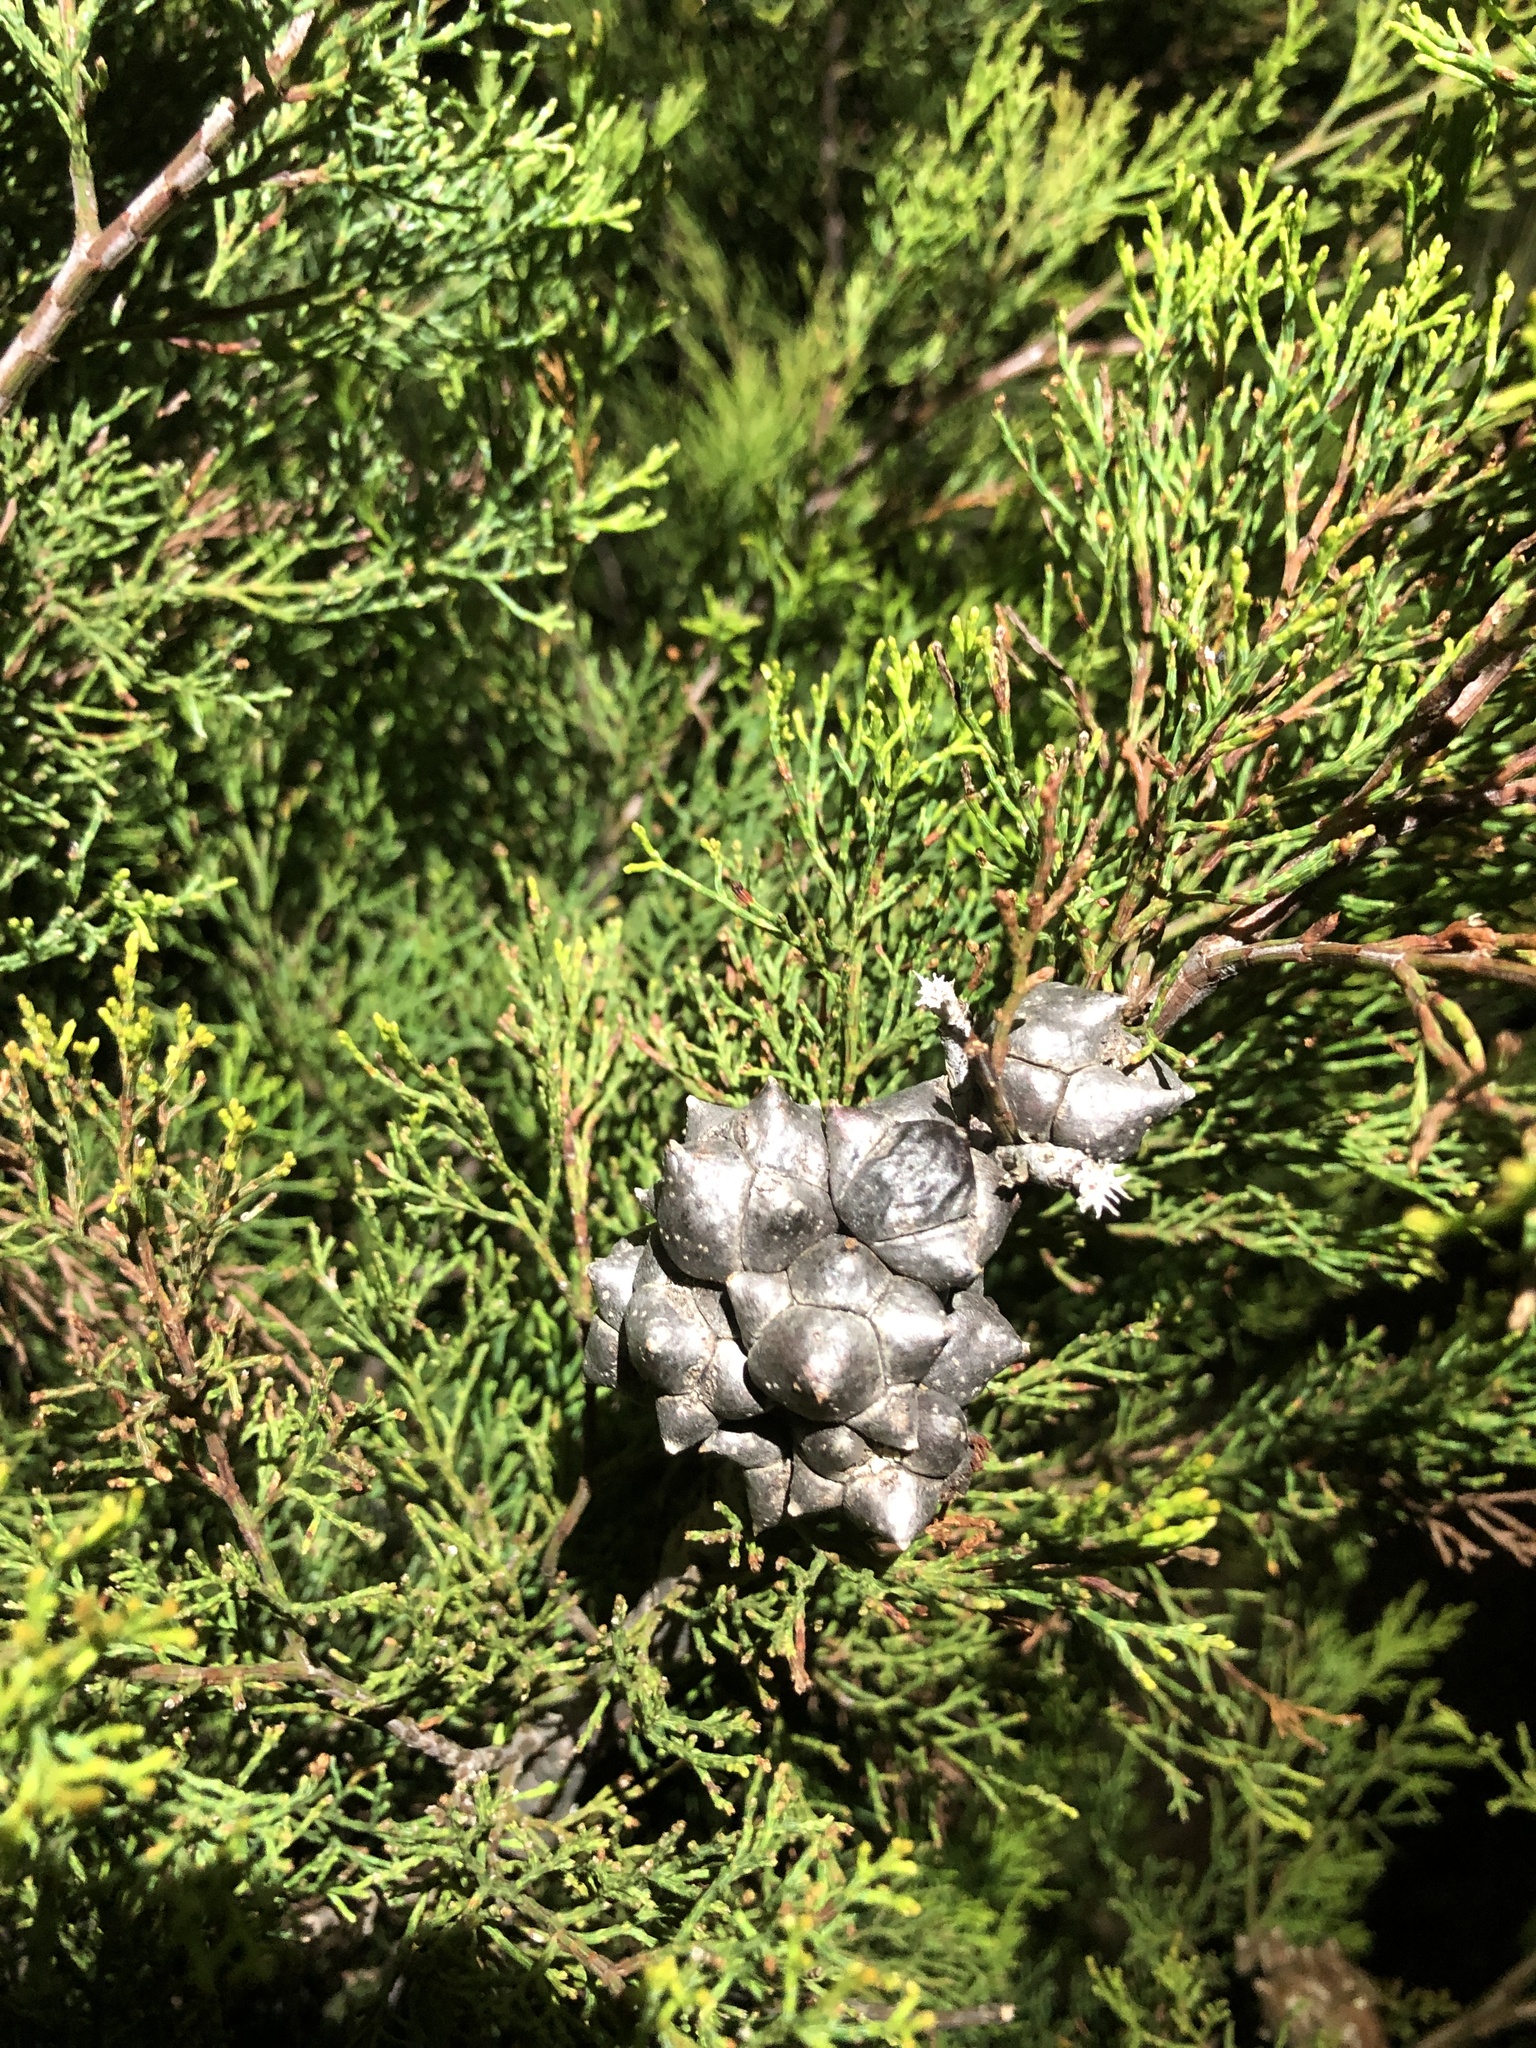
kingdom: Plantae
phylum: Tracheophyta
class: Pinopsida
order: Pinales
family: Cupressaceae
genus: Callitris
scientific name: Callitris rhomboidea
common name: Illawara mountain pine
